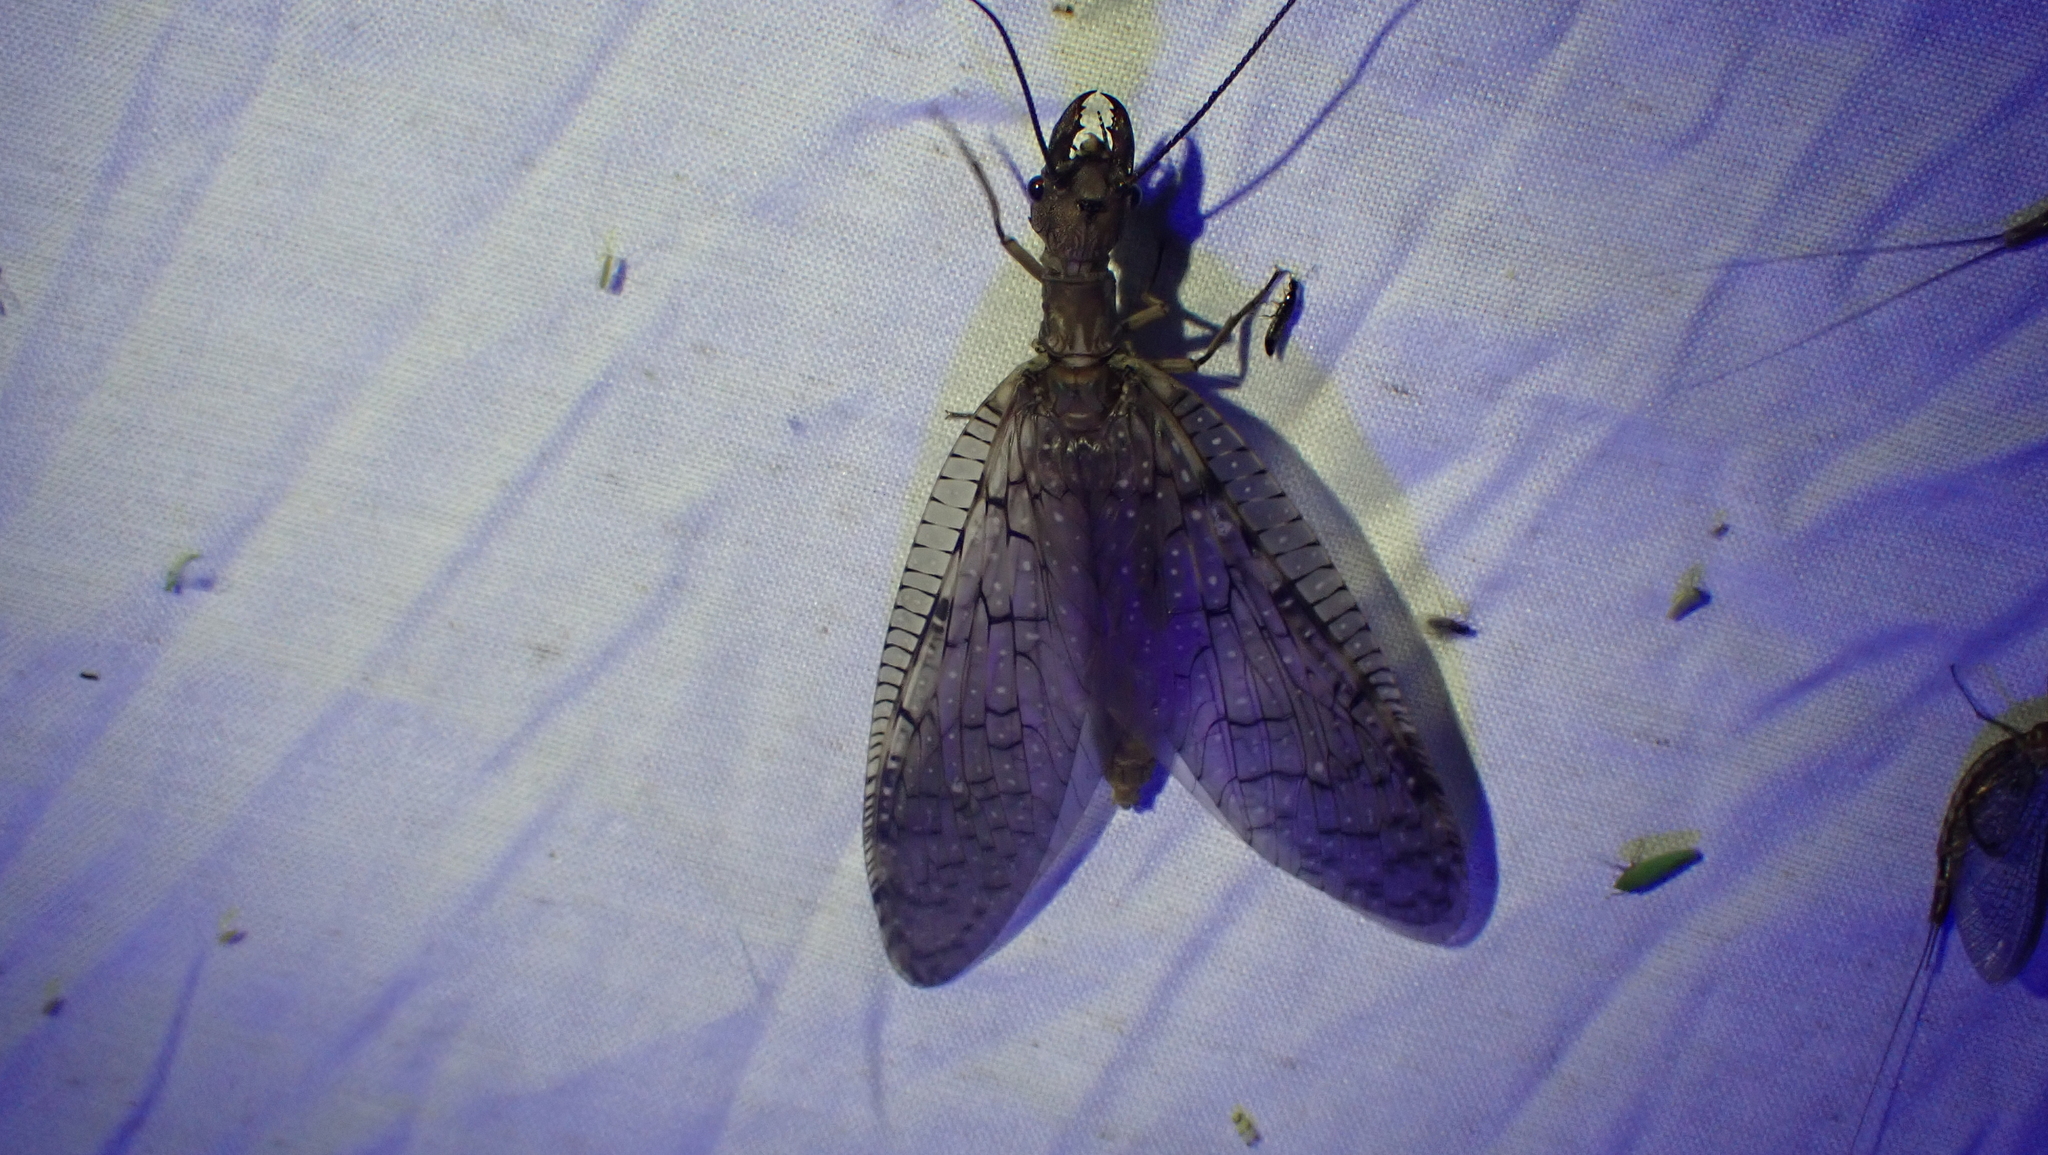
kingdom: Animalia
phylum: Arthropoda
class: Insecta
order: Megaloptera
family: Corydalidae
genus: Corydalus
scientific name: Corydalus cornutus
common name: Dobsonfly
